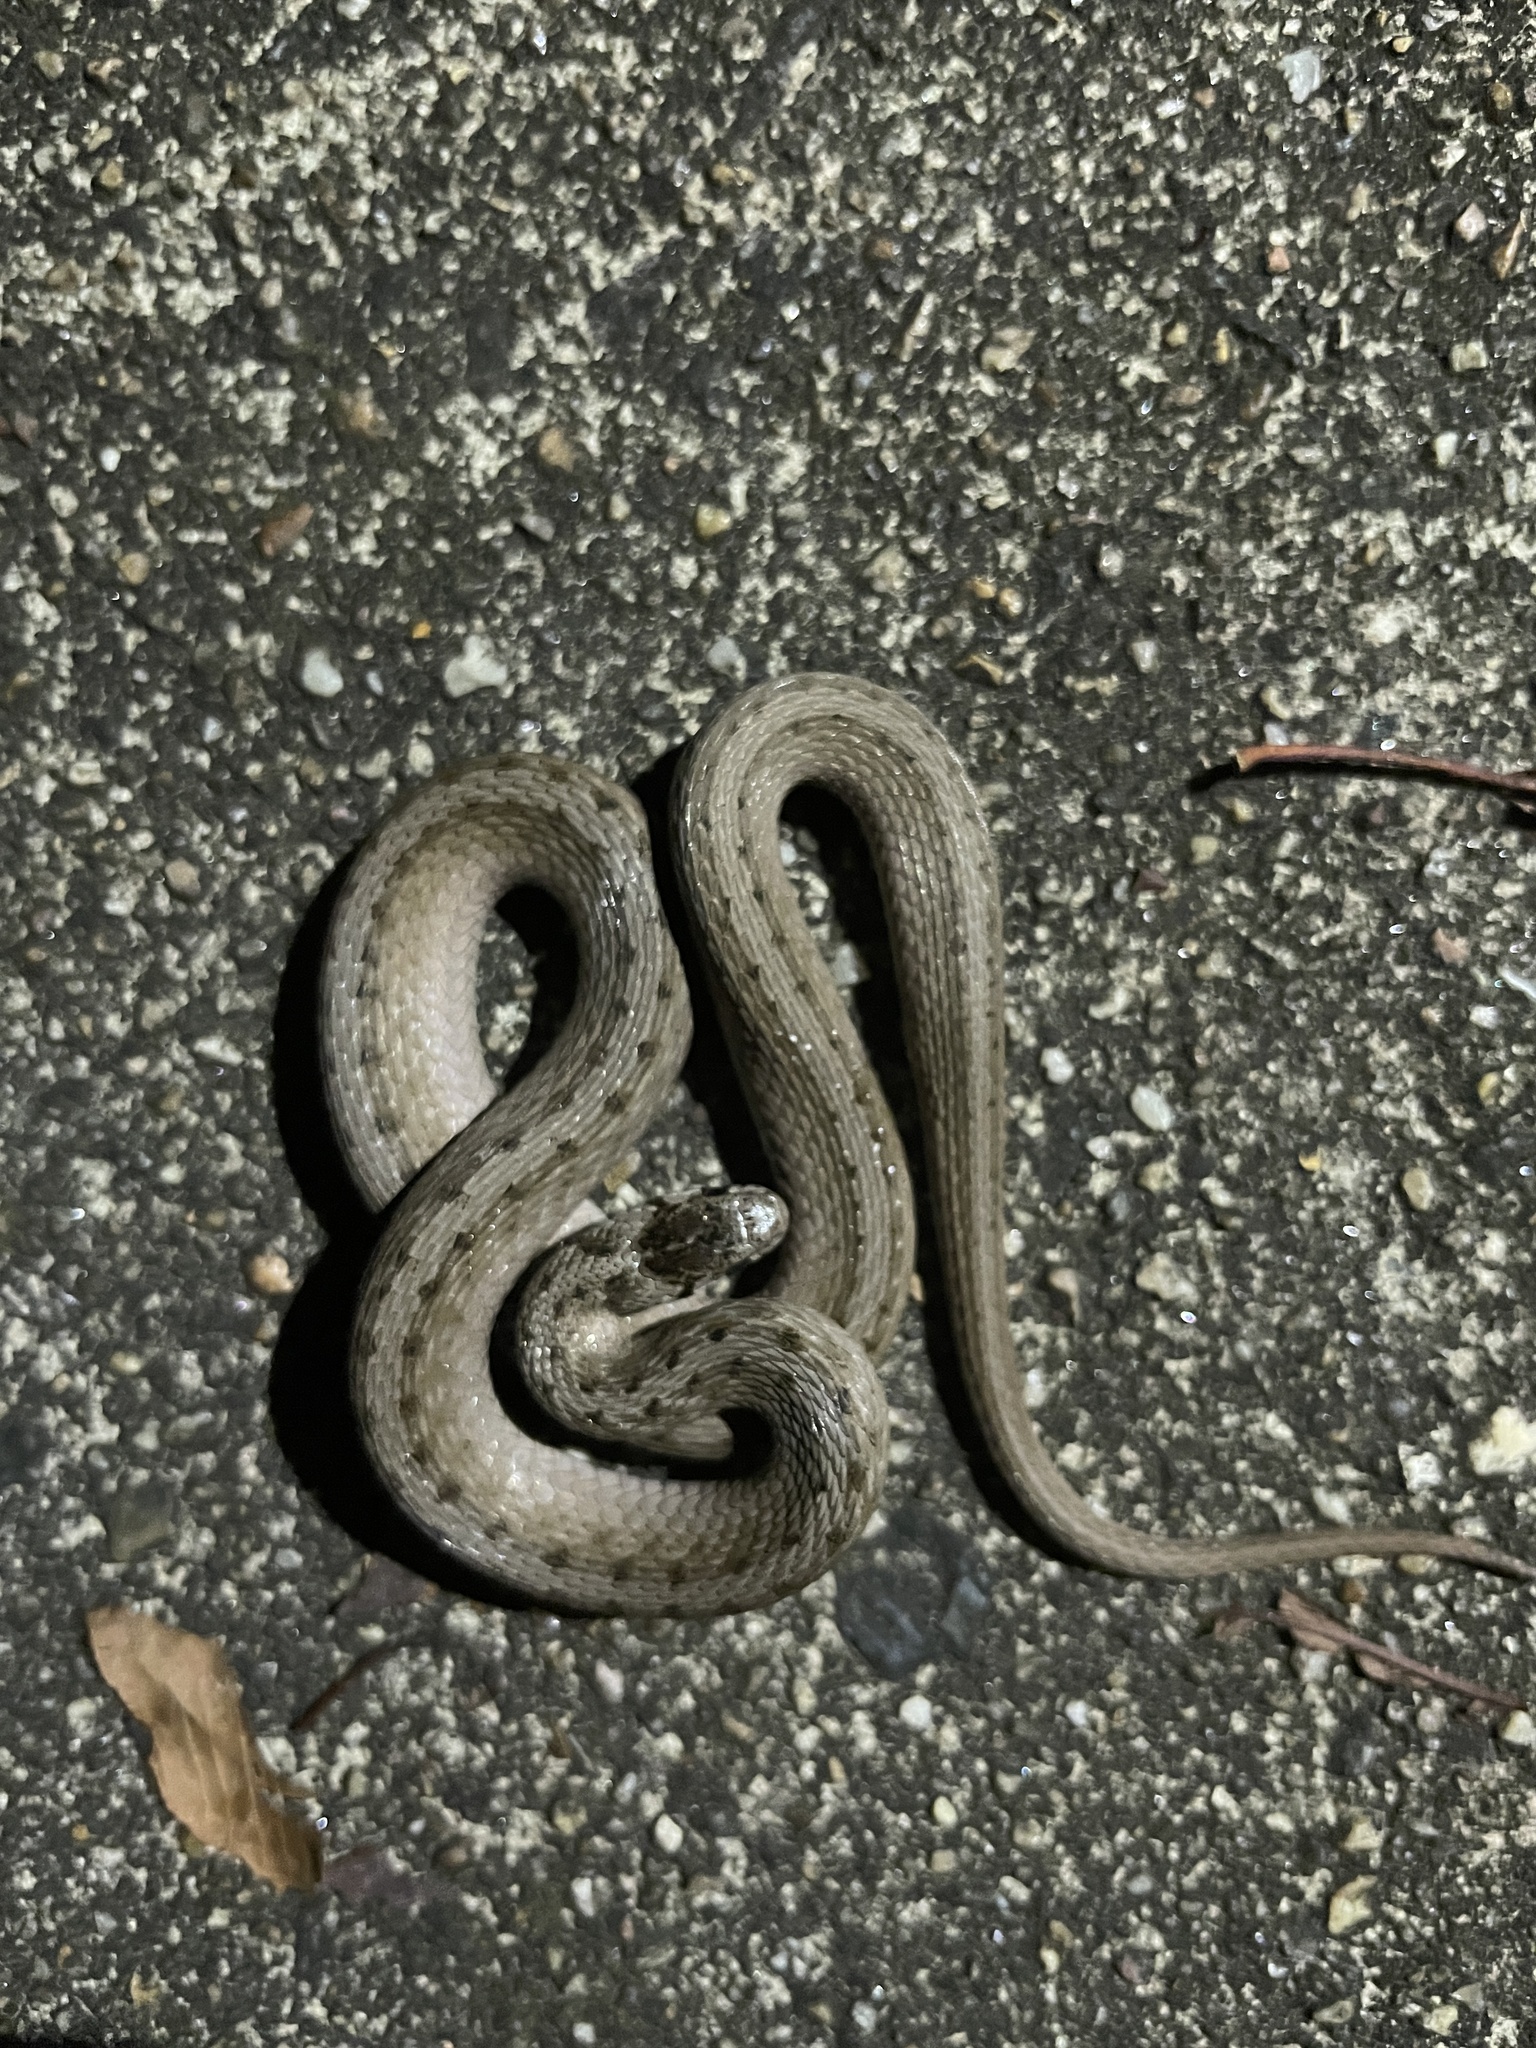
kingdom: Animalia
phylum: Chordata
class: Squamata
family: Colubridae
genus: Storeria
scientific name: Storeria dekayi
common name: (dekay’s) brown snake
